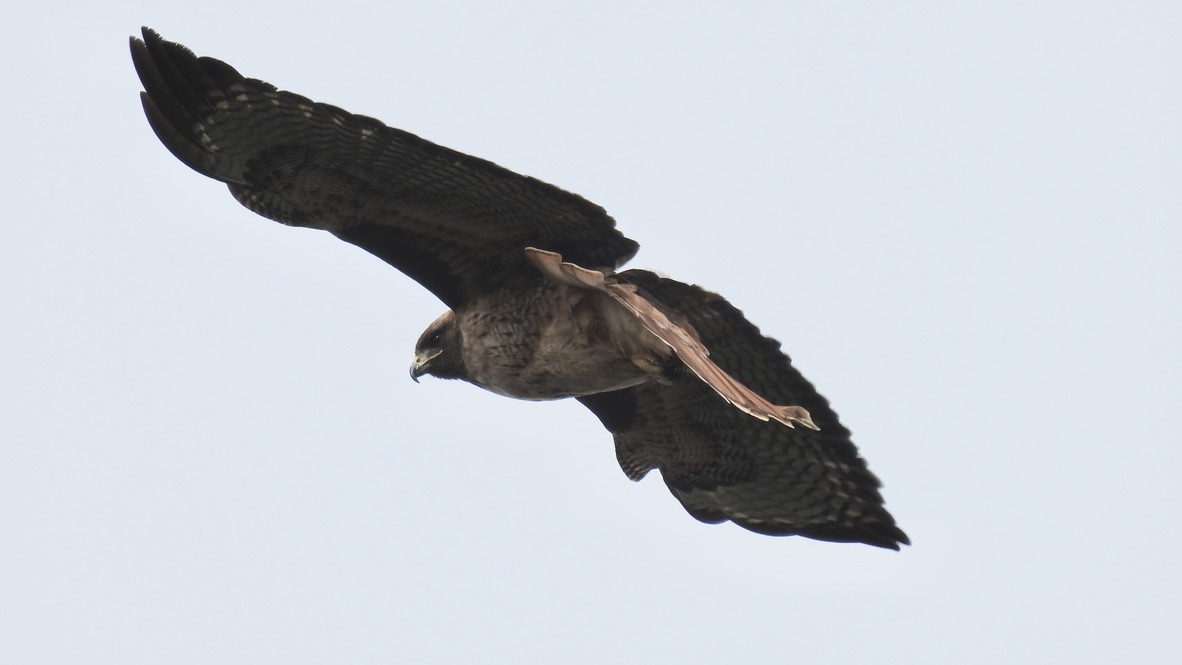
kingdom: Animalia
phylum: Chordata
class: Aves
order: Accipitriformes
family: Accipitridae
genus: Buteo
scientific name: Buteo jamaicensis
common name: Red-tailed hawk
